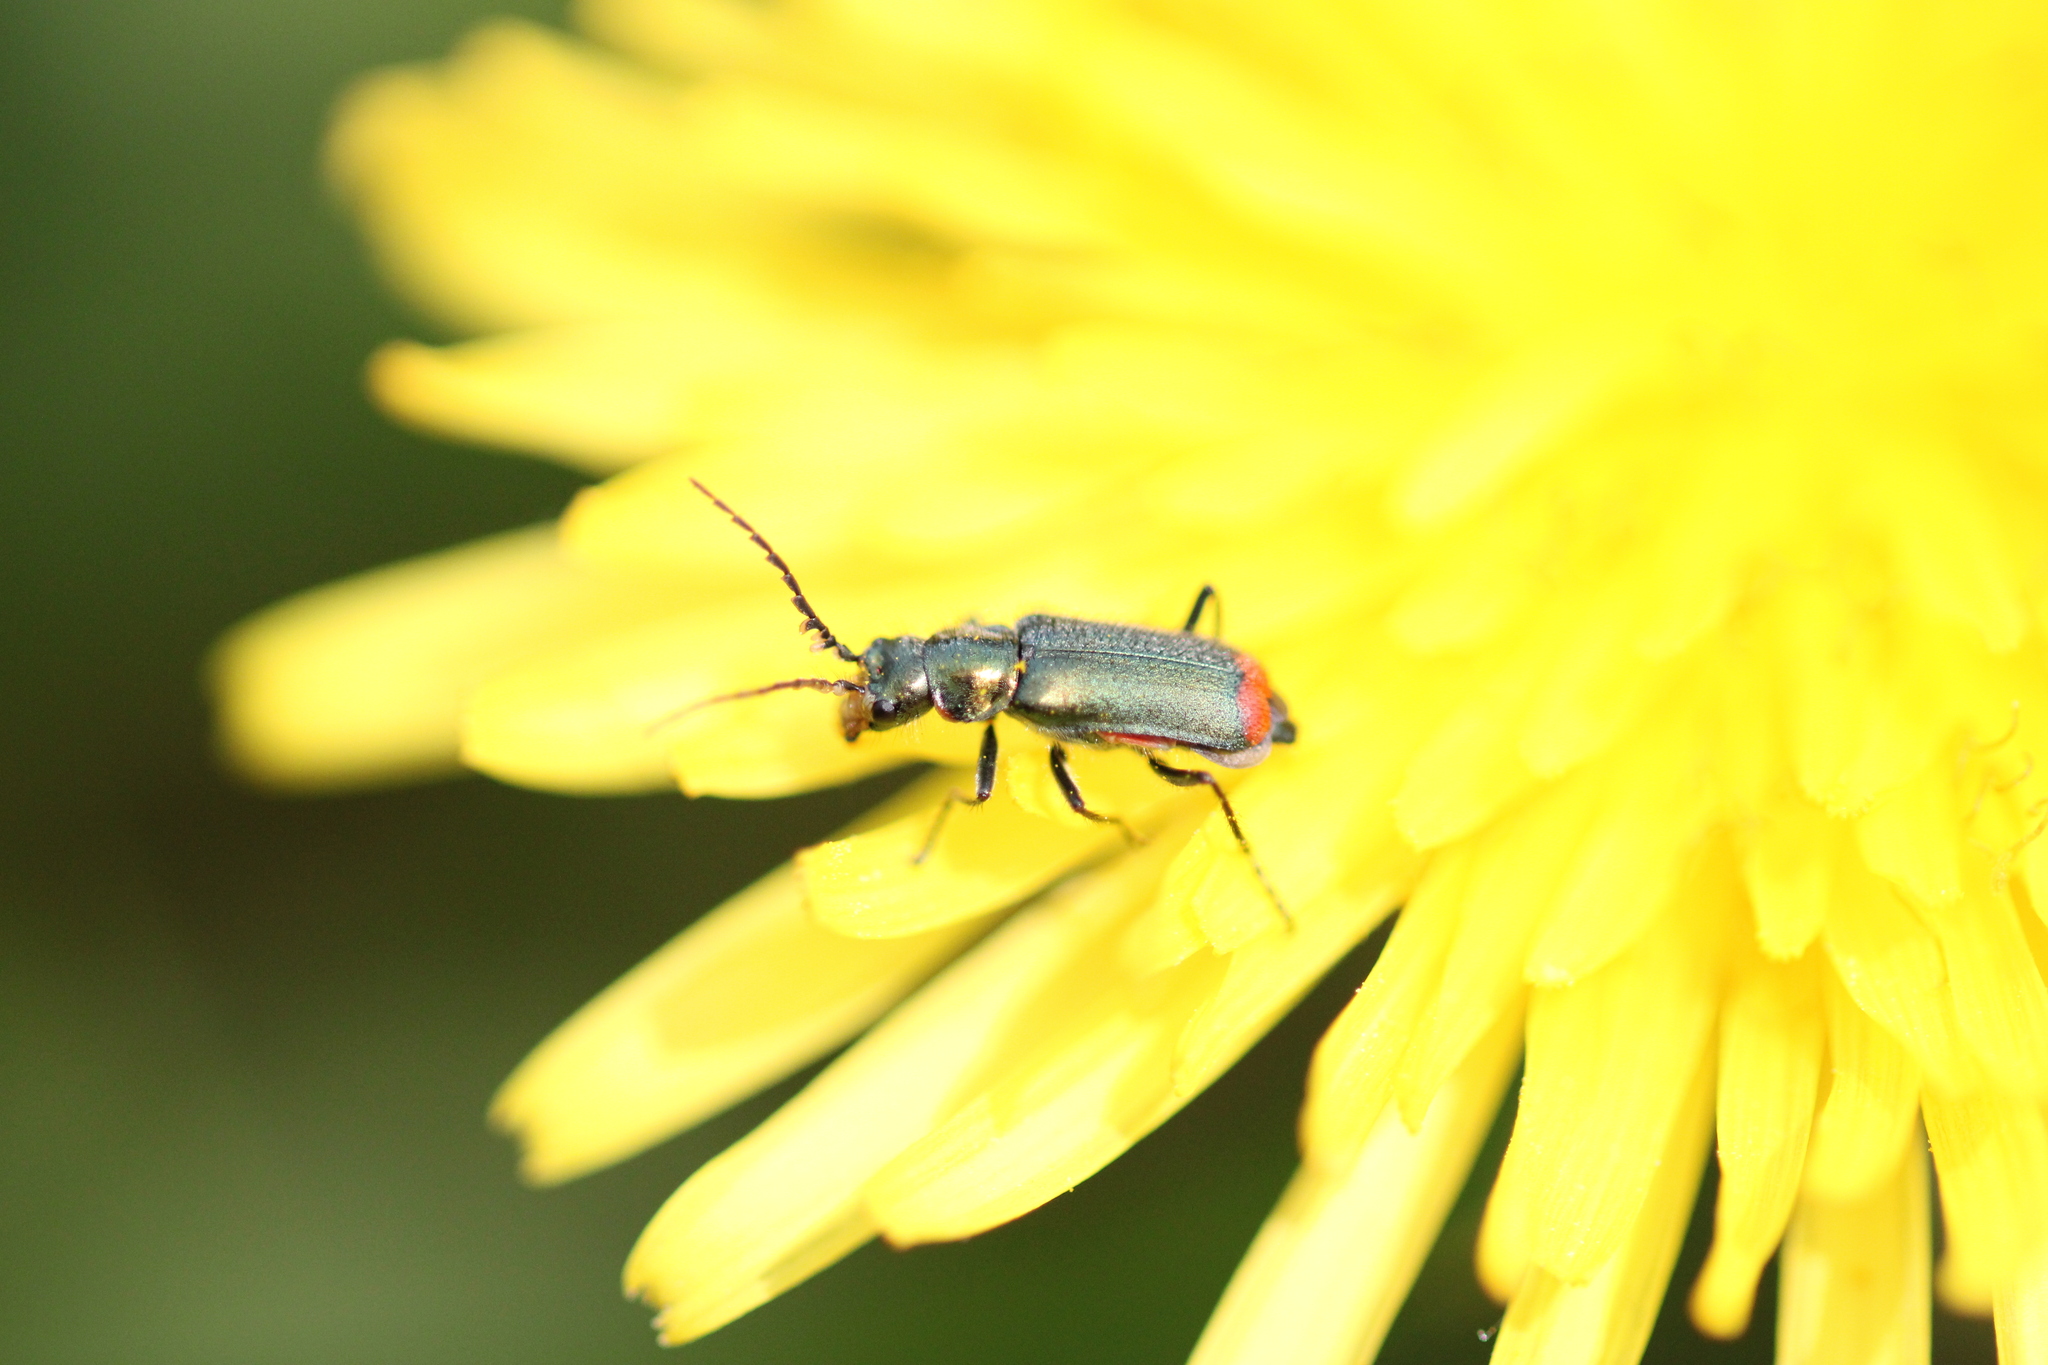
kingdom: Animalia
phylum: Arthropoda
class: Insecta
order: Coleoptera
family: Melyridae
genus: Malachius
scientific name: Malachius bipustulatus
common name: Malachite beetle
